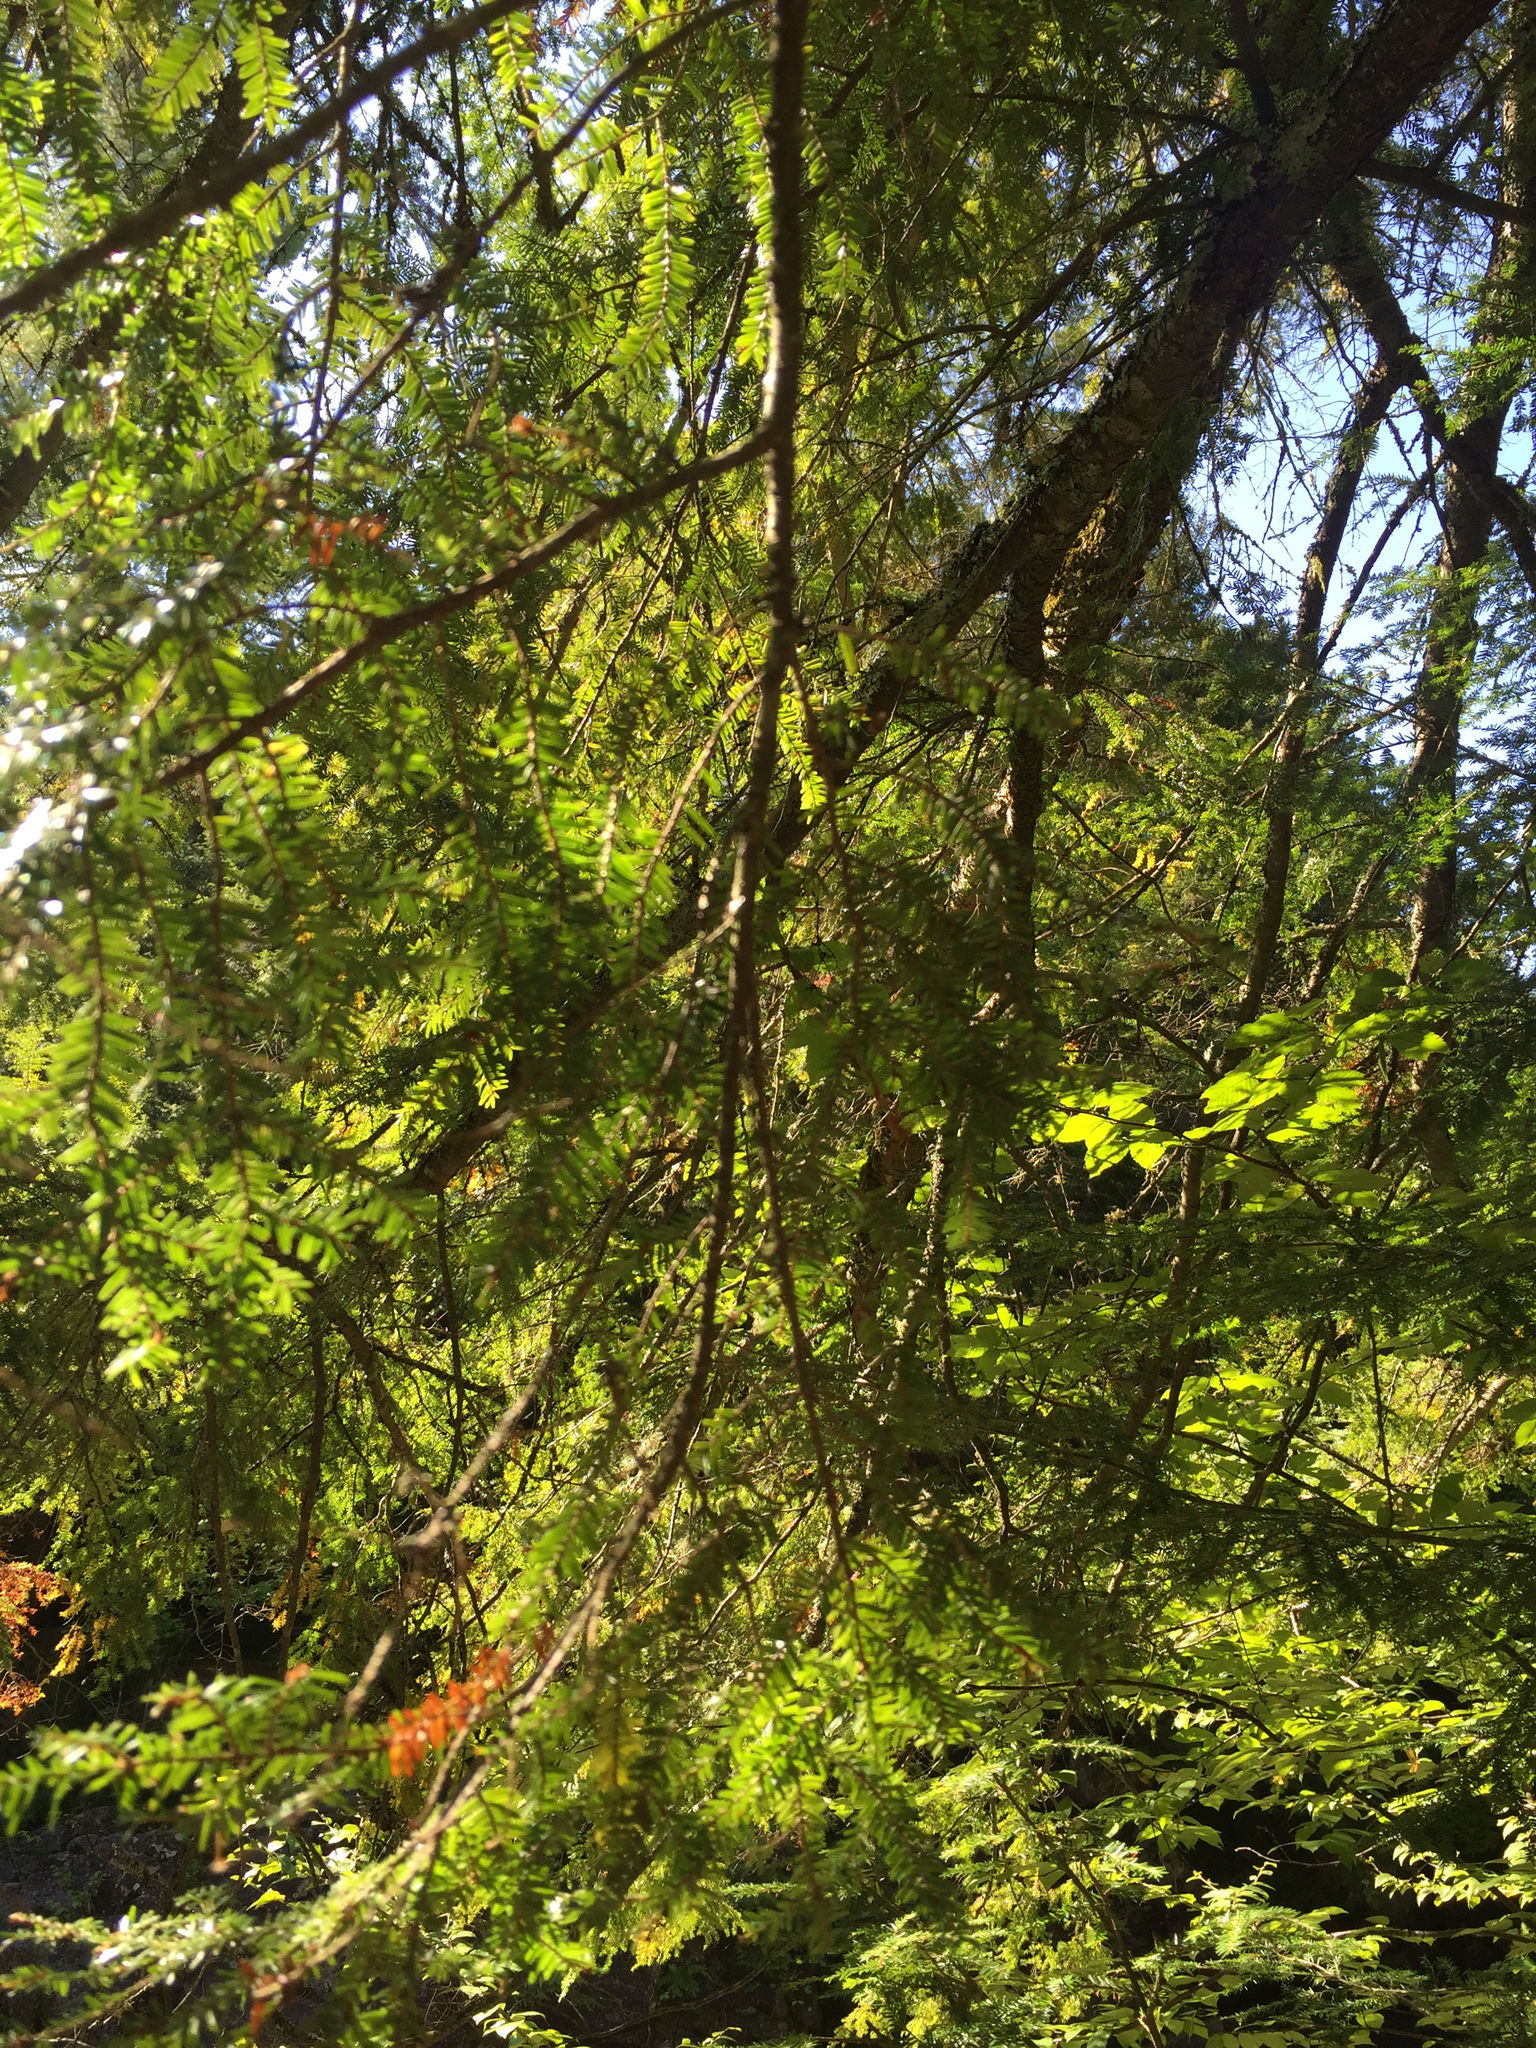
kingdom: Plantae
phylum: Tracheophyta
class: Pinopsida
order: Pinales
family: Pinaceae
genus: Tsuga
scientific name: Tsuga canadensis
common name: Eastern hemlock
